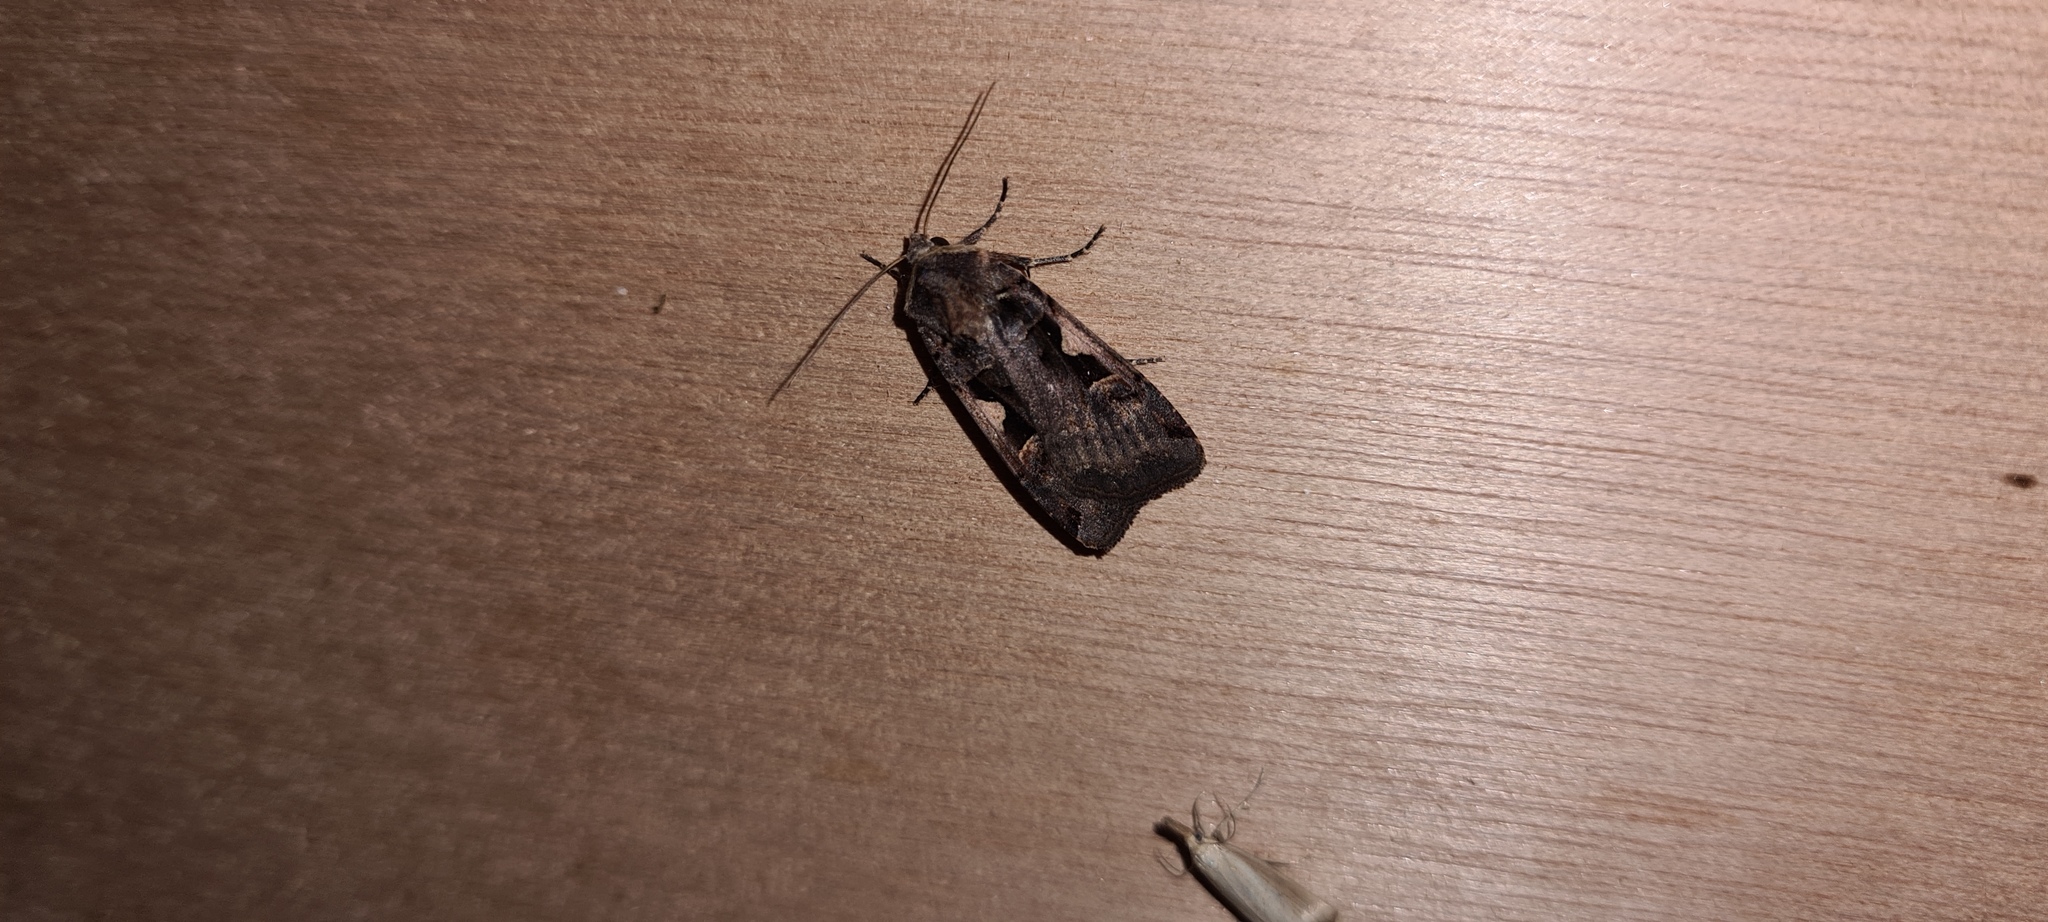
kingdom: Animalia
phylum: Arthropoda
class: Insecta
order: Lepidoptera
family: Noctuidae
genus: Xestia
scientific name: Xestia c-nigrum
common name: Setaceous hebrew character
